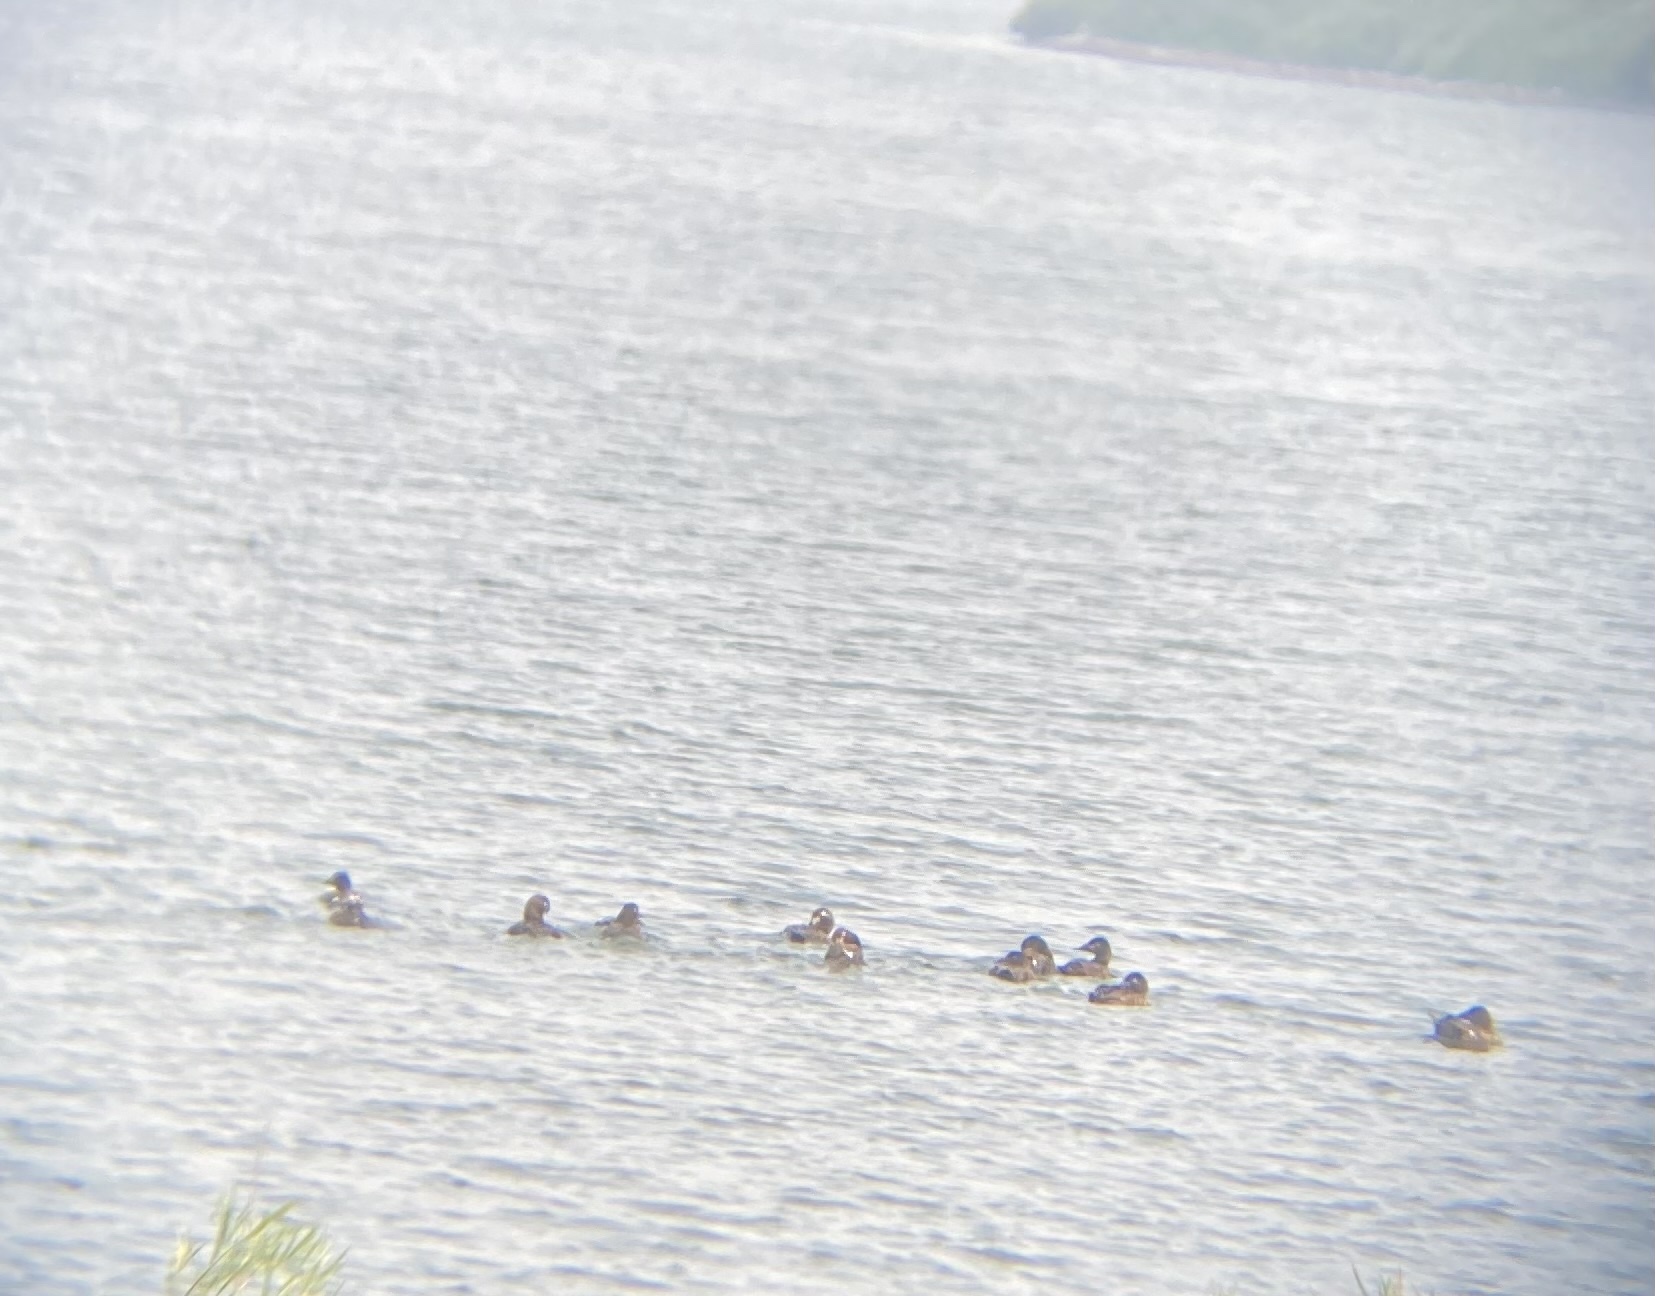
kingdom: Animalia
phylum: Chordata
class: Aves
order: Anseriformes
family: Anatidae
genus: Melanitta
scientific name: Melanitta deglandi
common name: White-winged scoter
